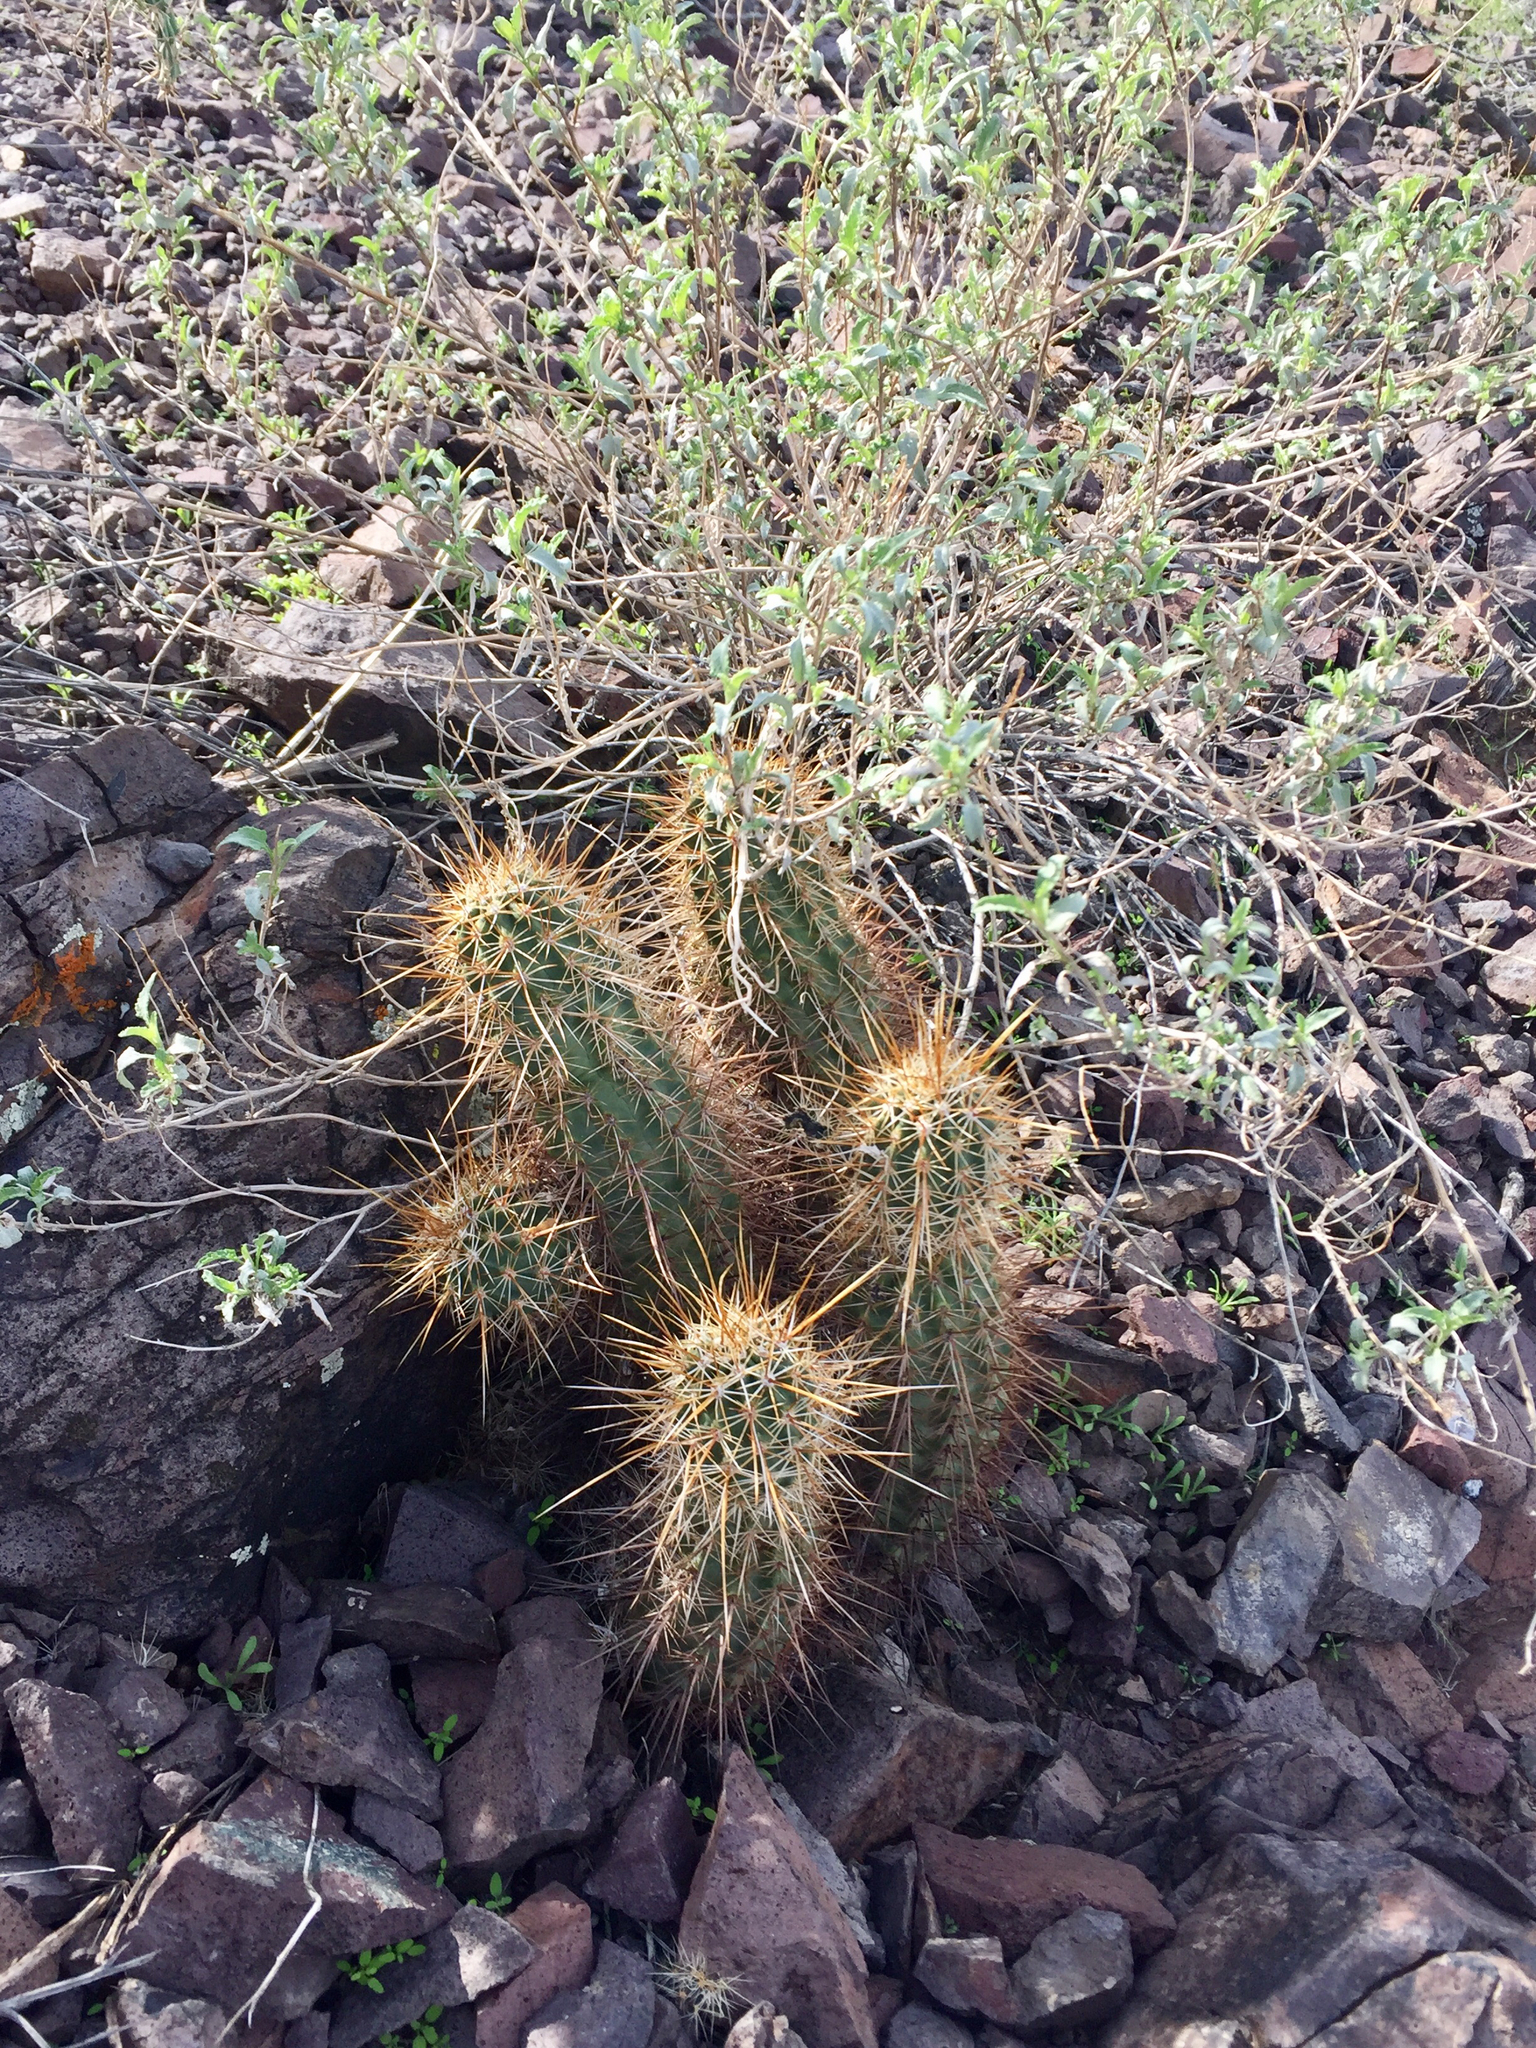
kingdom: Plantae
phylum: Tracheophyta
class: Magnoliopsida
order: Caryophyllales
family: Cactaceae
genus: Echinocereus
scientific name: Echinocereus engelmannii
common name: Engelmann's hedgehog cactus
